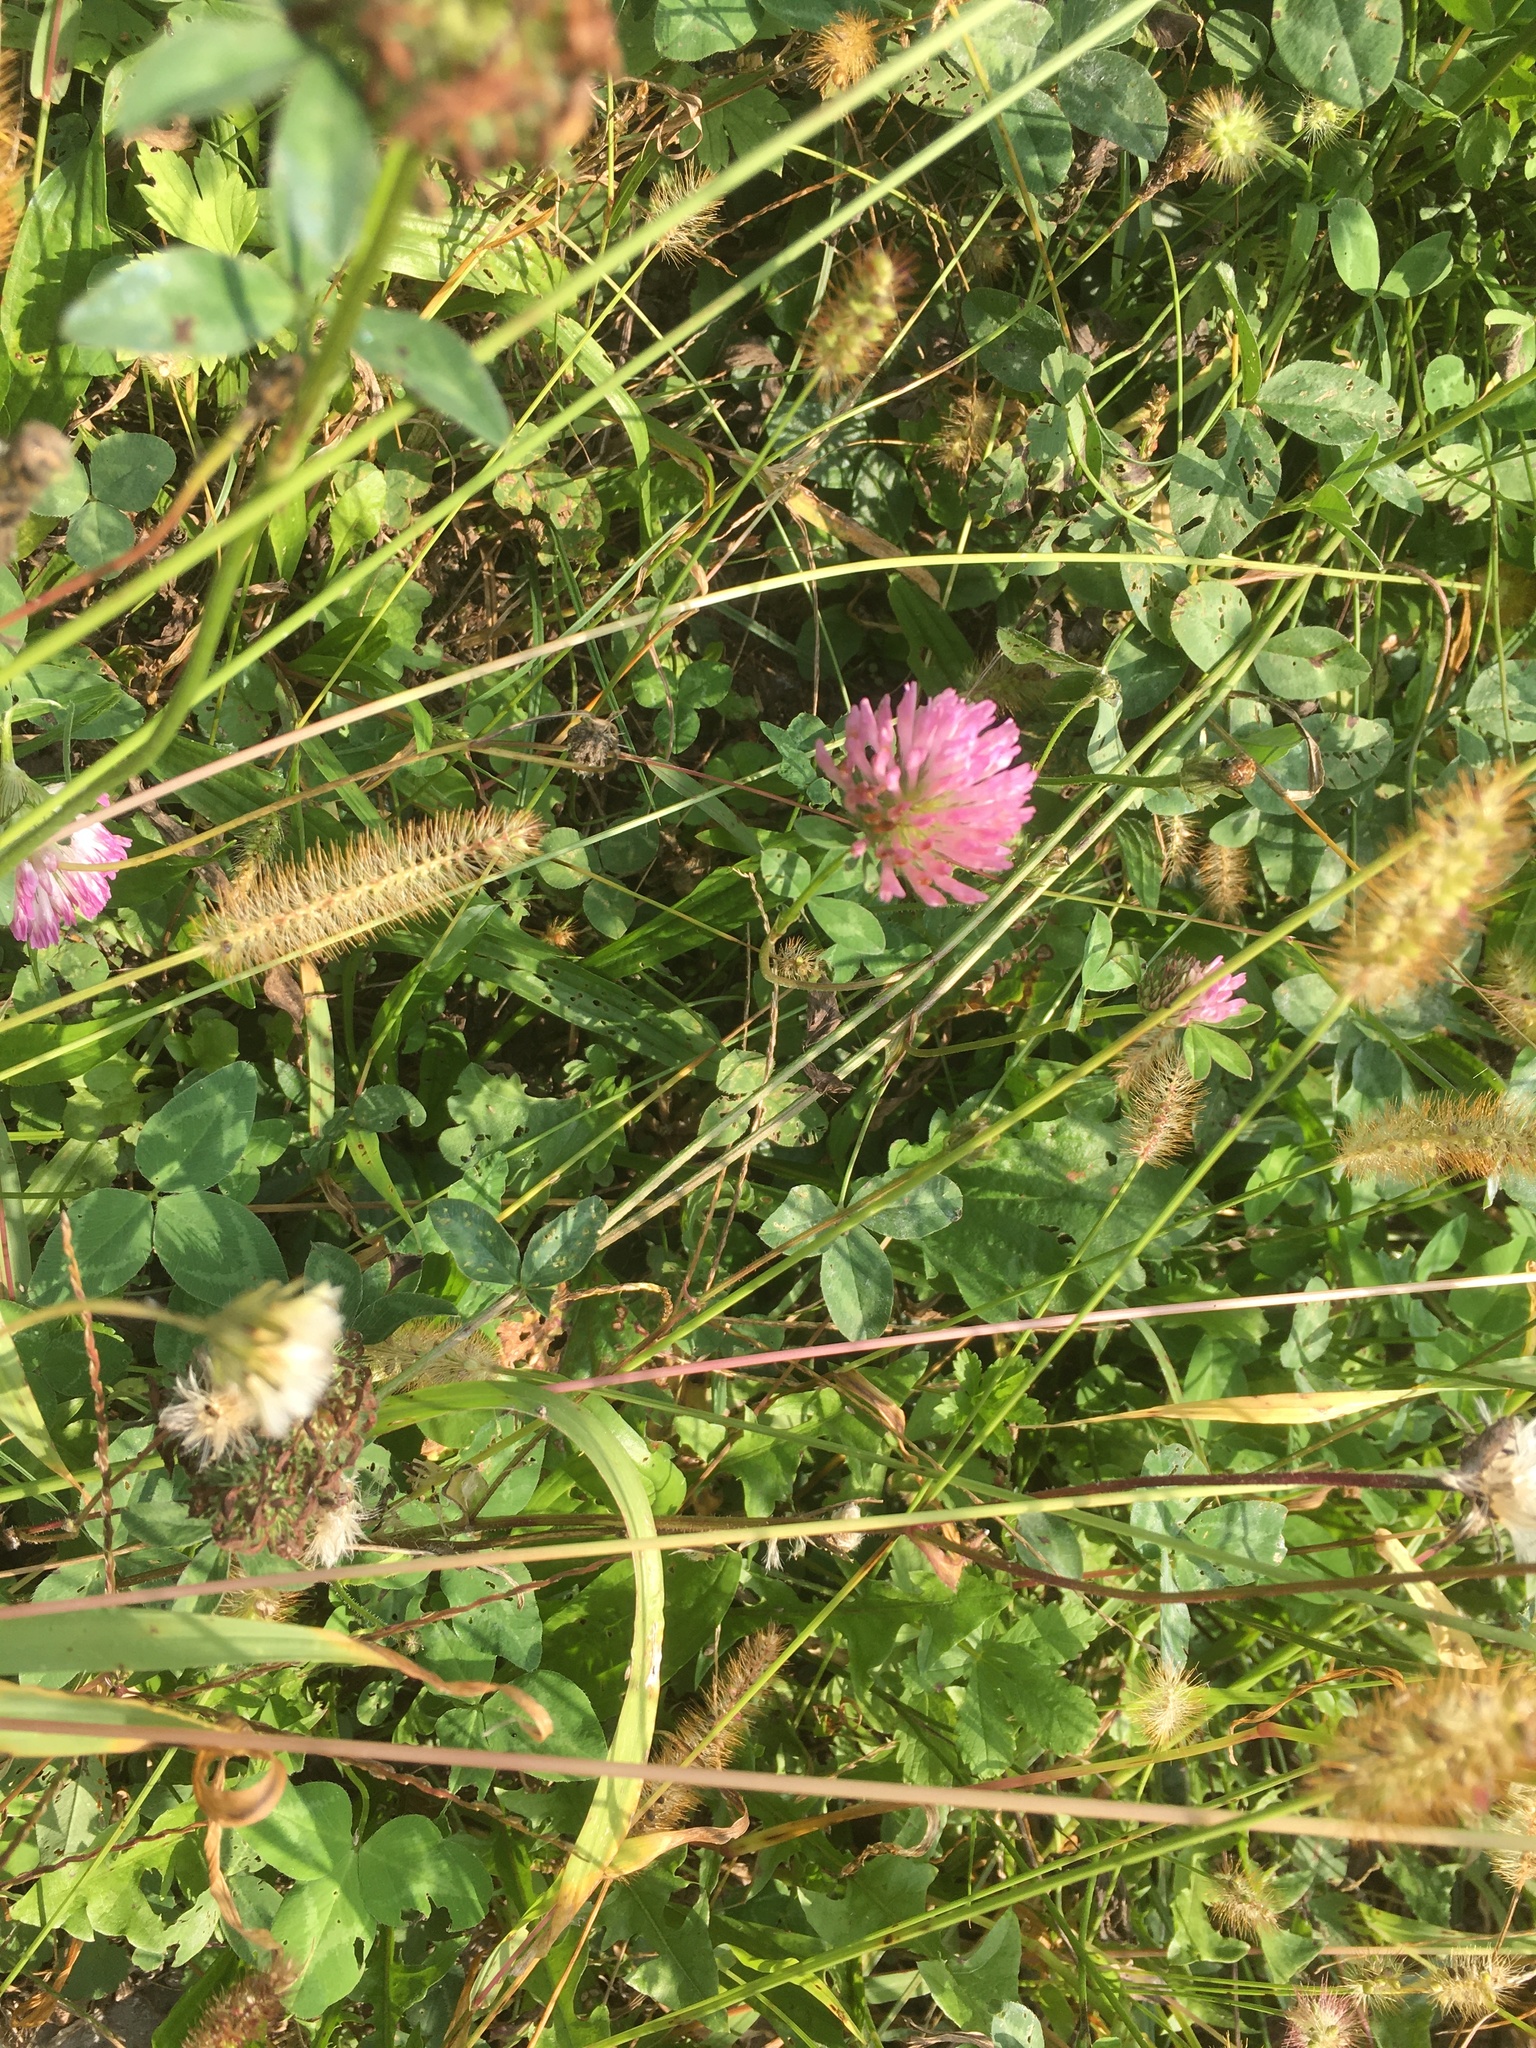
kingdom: Plantae
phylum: Tracheophyta
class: Magnoliopsida
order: Fabales
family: Fabaceae
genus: Trifolium
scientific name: Trifolium pratense
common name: Red clover
